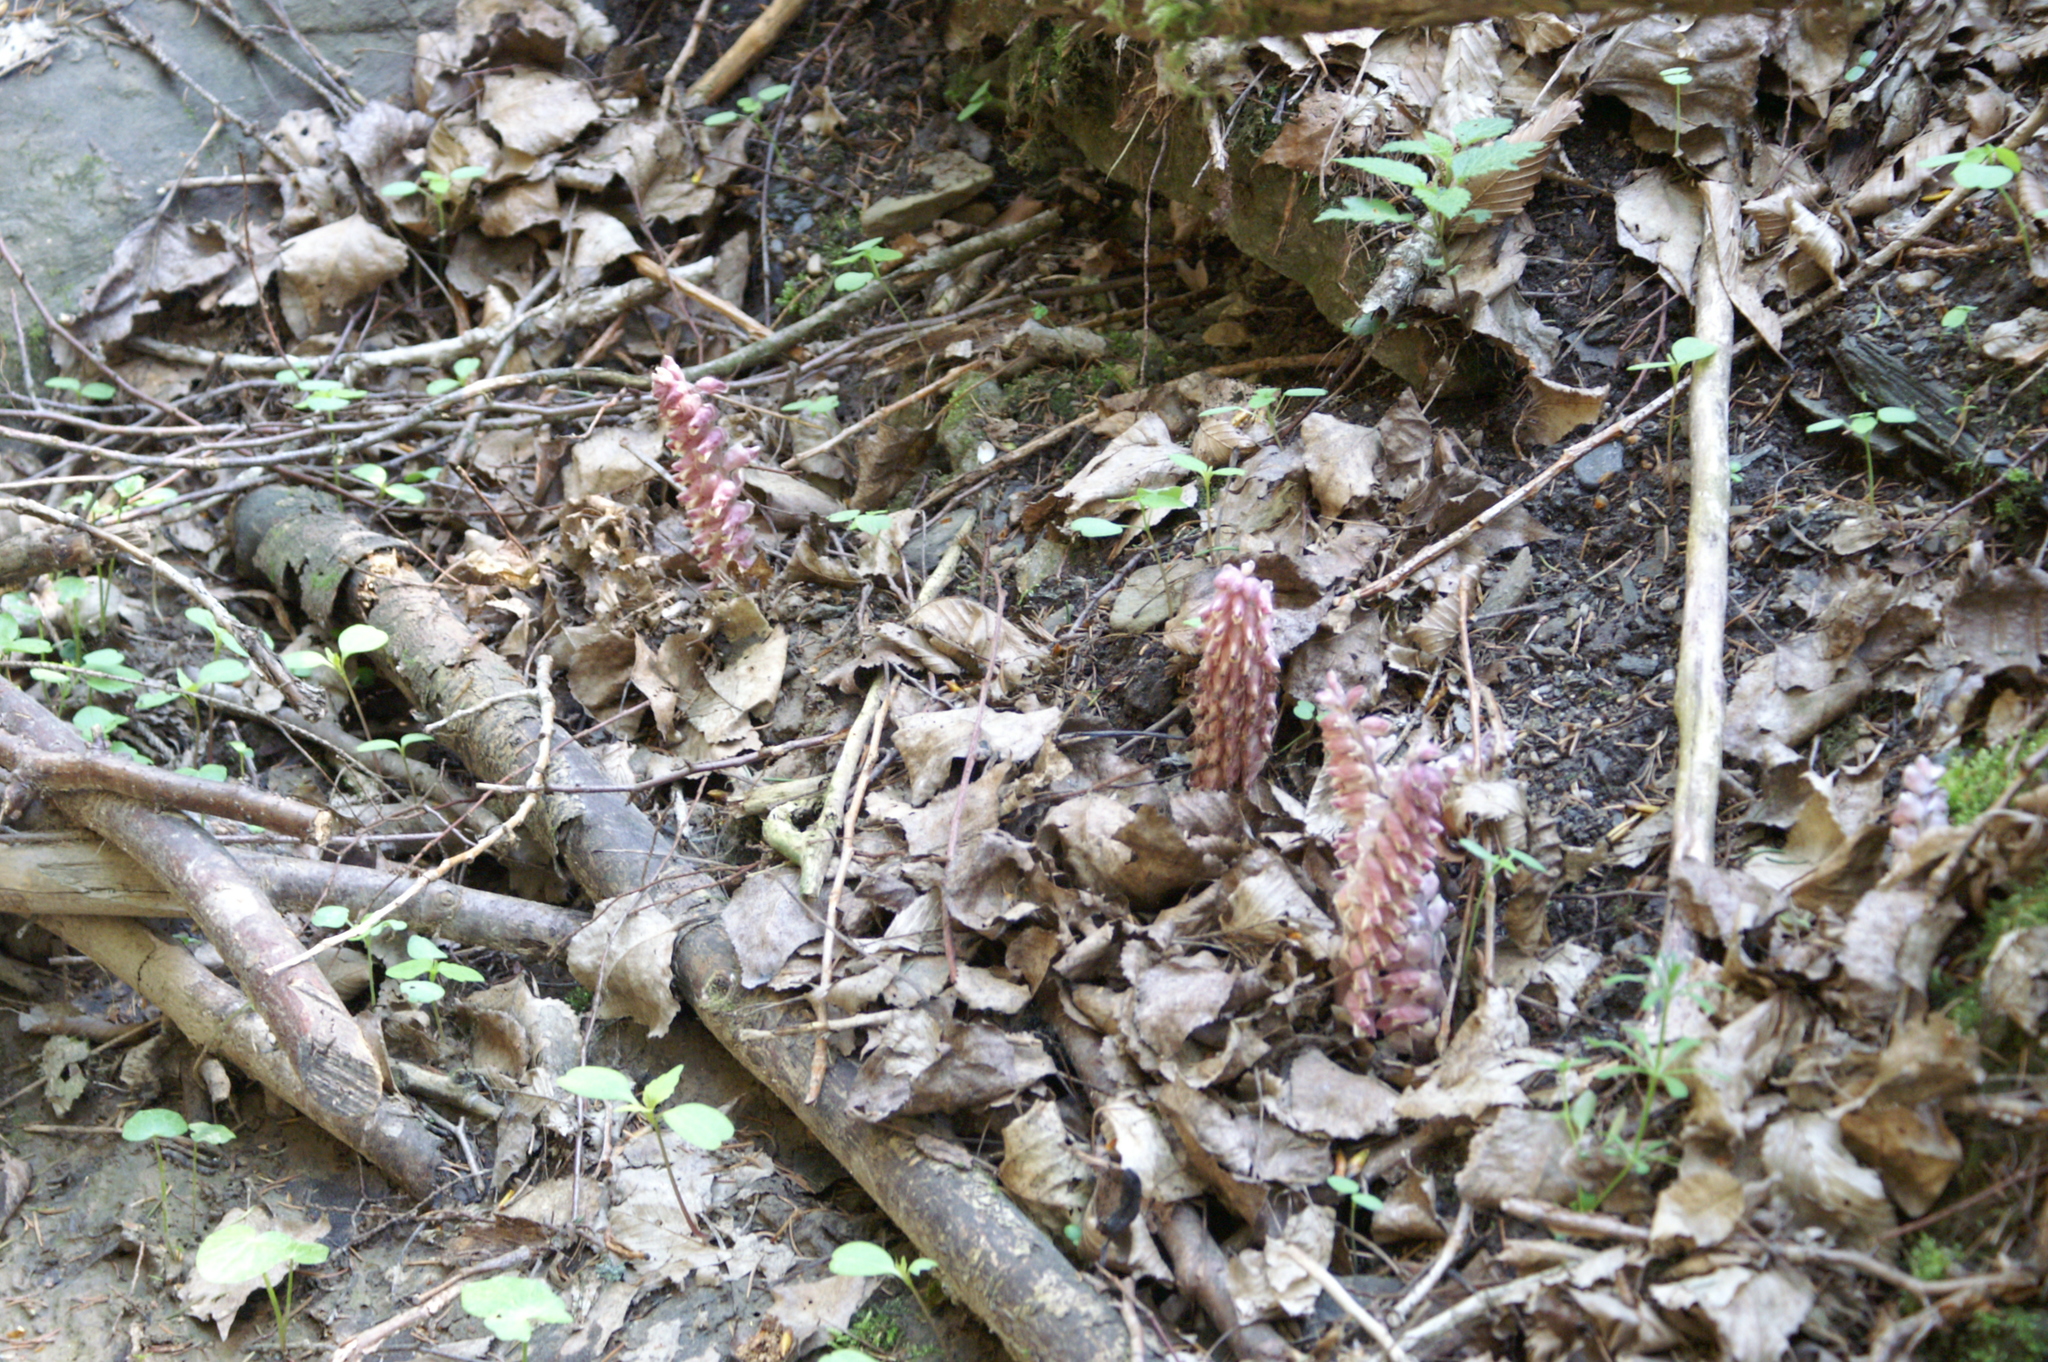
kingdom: Plantae
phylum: Tracheophyta
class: Magnoliopsida
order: Lamiales
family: Orobanchaceae
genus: Lathraea
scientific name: Lathraea squamaria
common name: Toothwort
